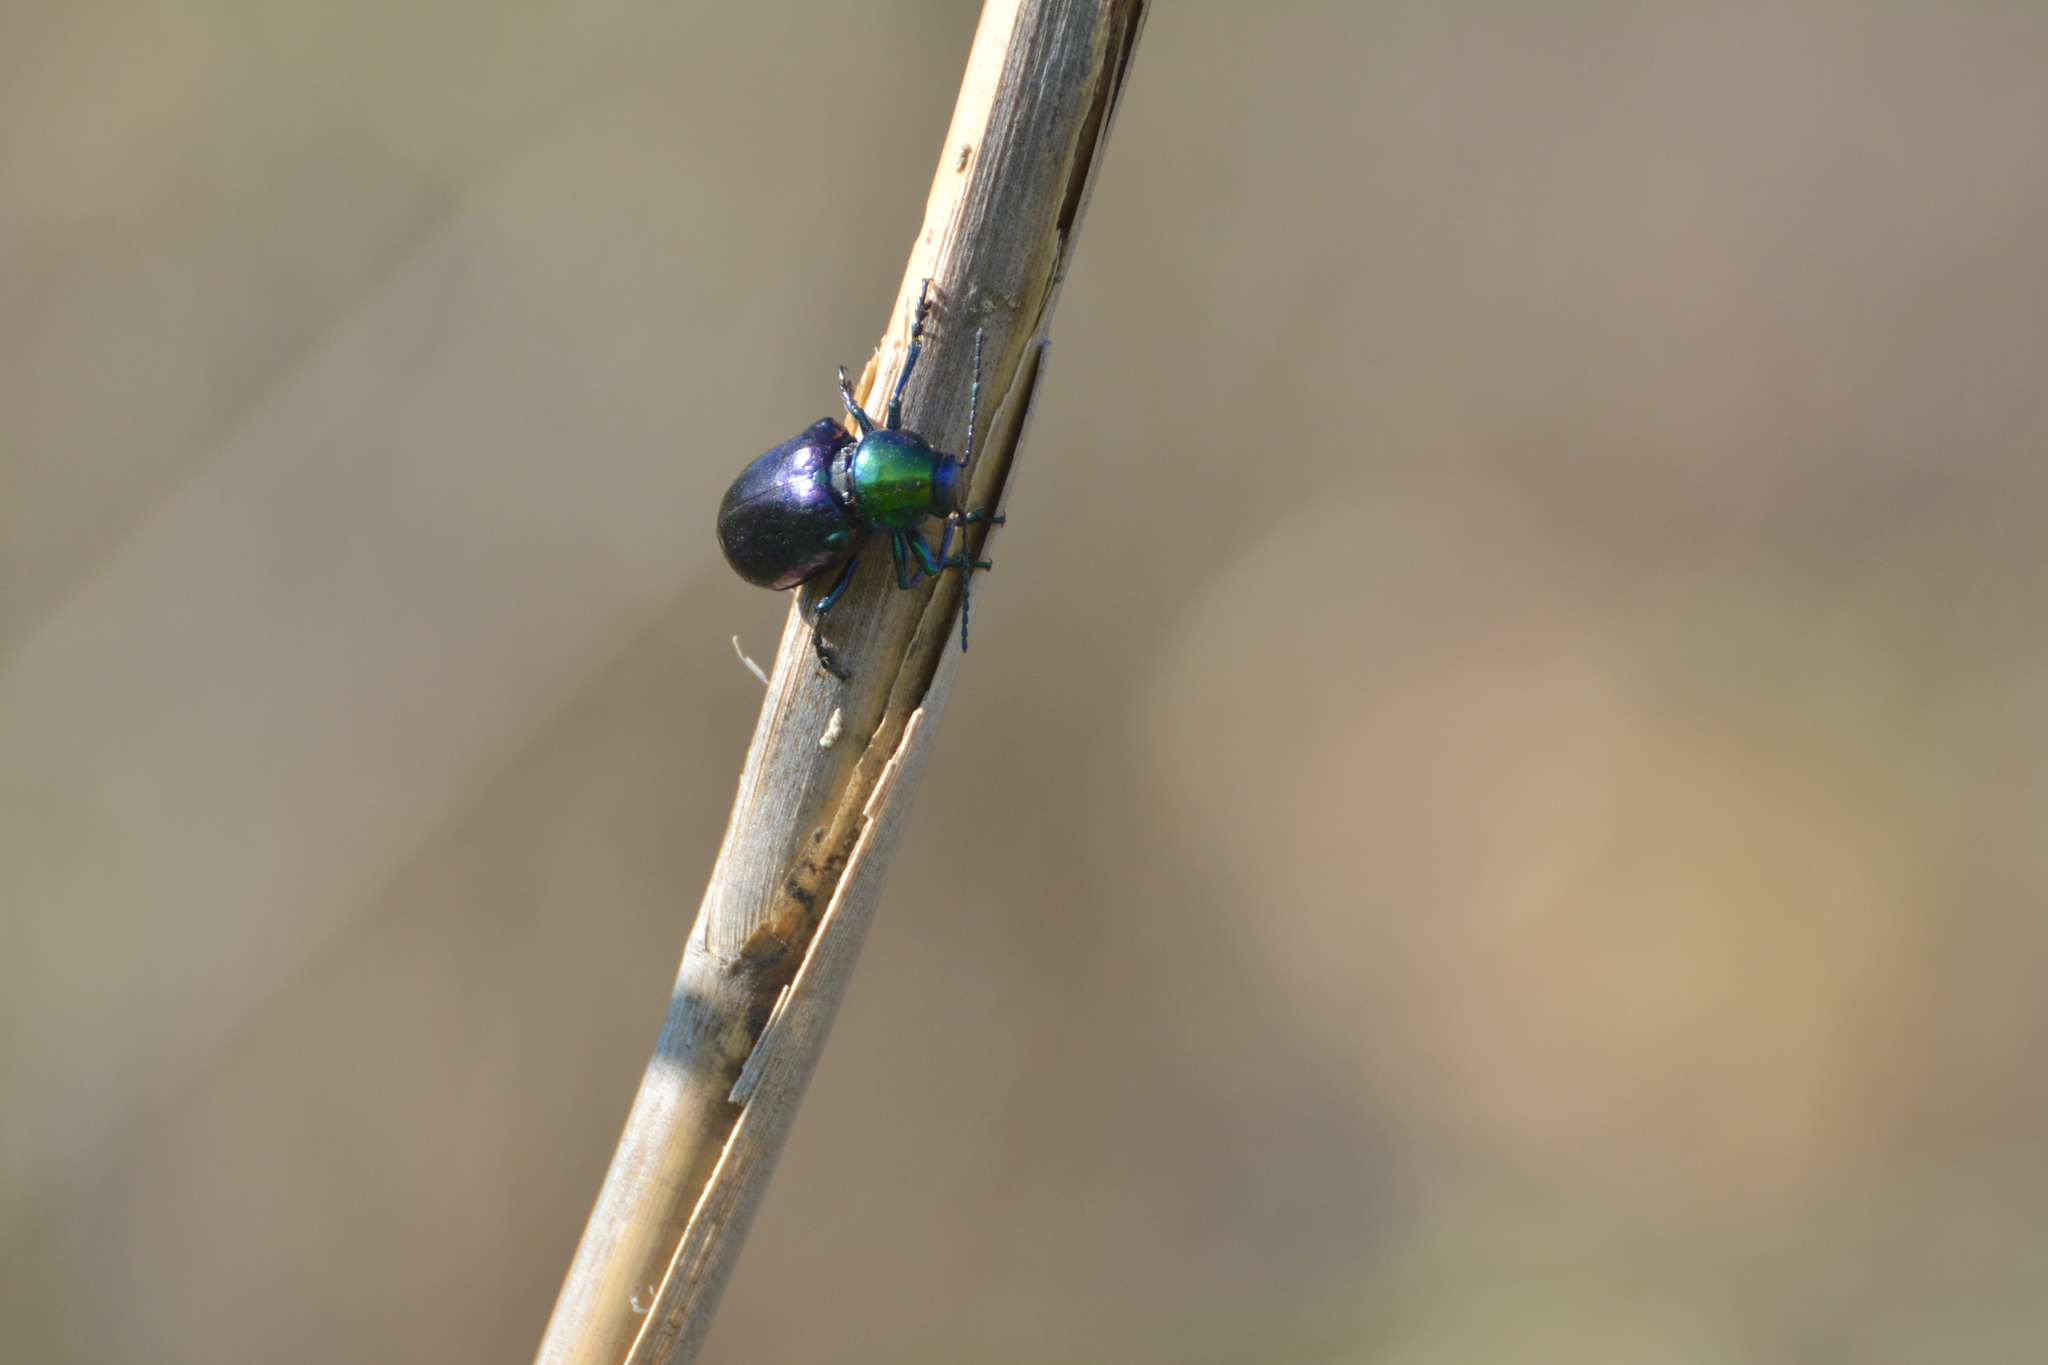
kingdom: Animalia
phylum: Arthropoda
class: Insecta
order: Coleoptera
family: Chrysomelidae
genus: Chrysochares
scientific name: Chrysochares
